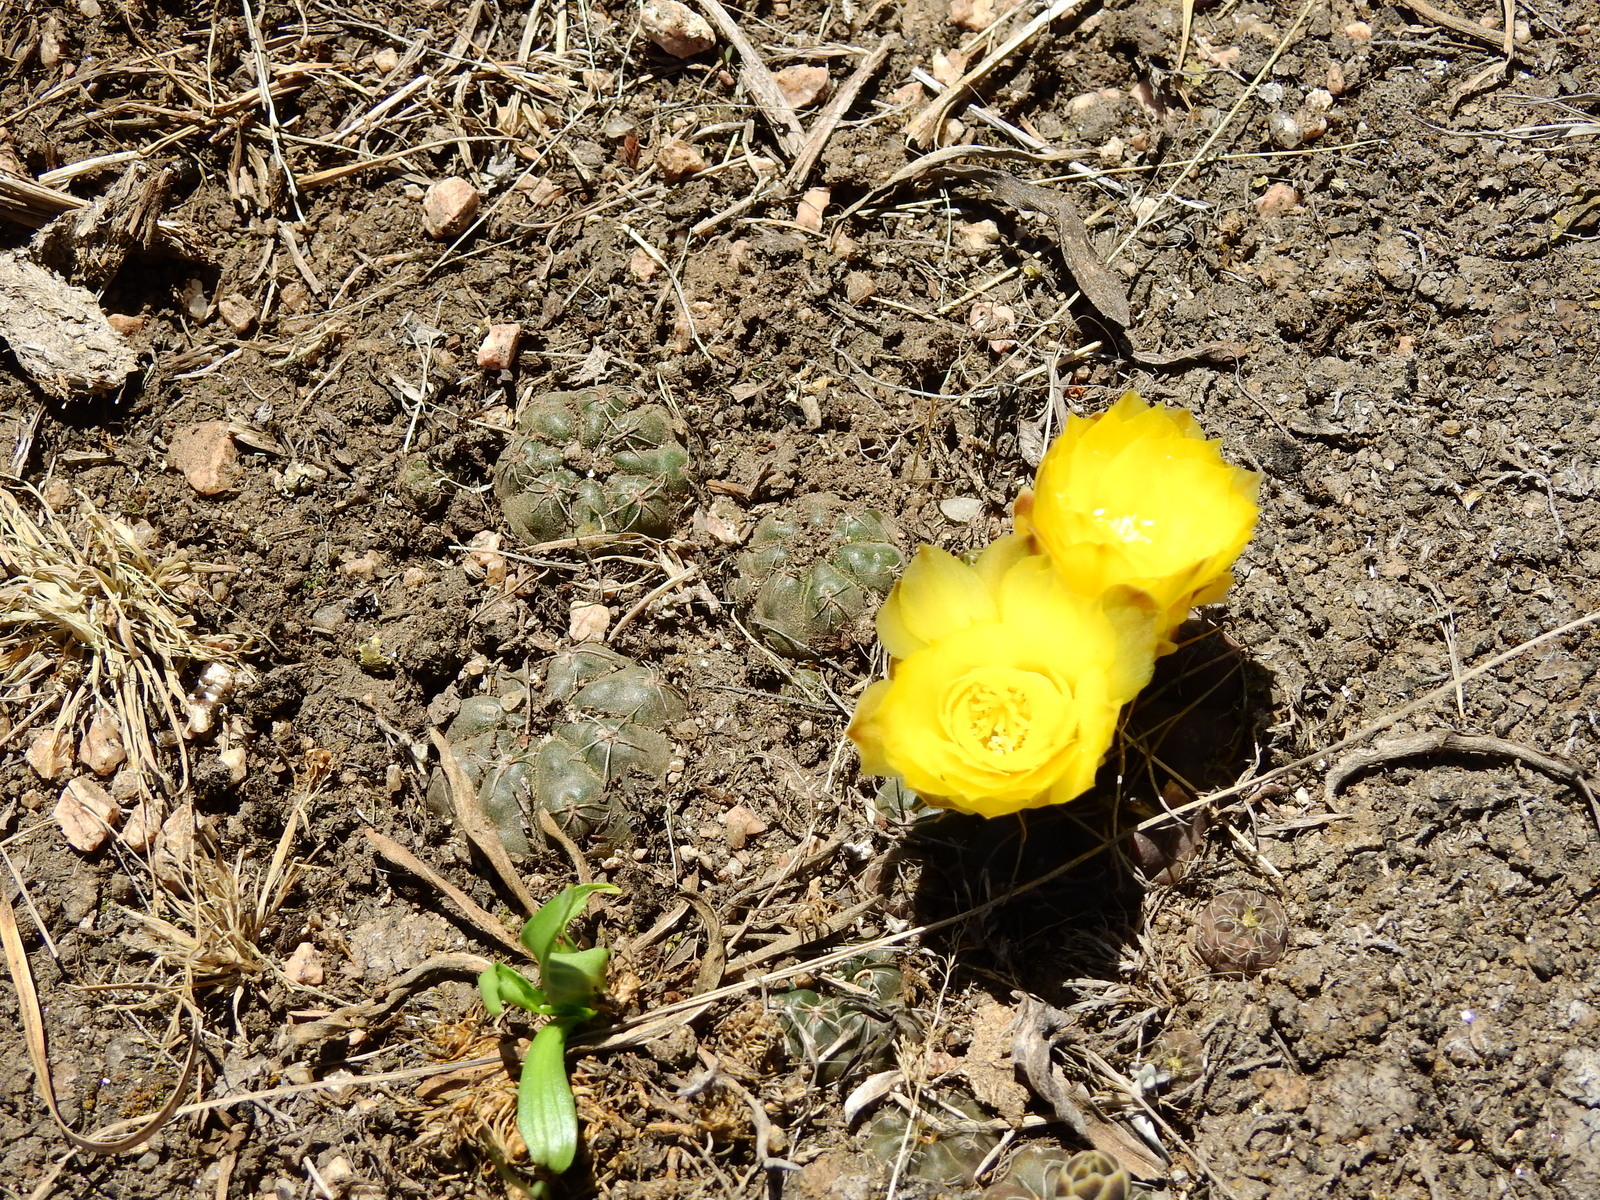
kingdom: Plantae
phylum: Tracheophyta
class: Magnoliopsida
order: Caryophyllales
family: Cactaceae
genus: Gymnocalycium
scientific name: Gymnocalycium andreae
